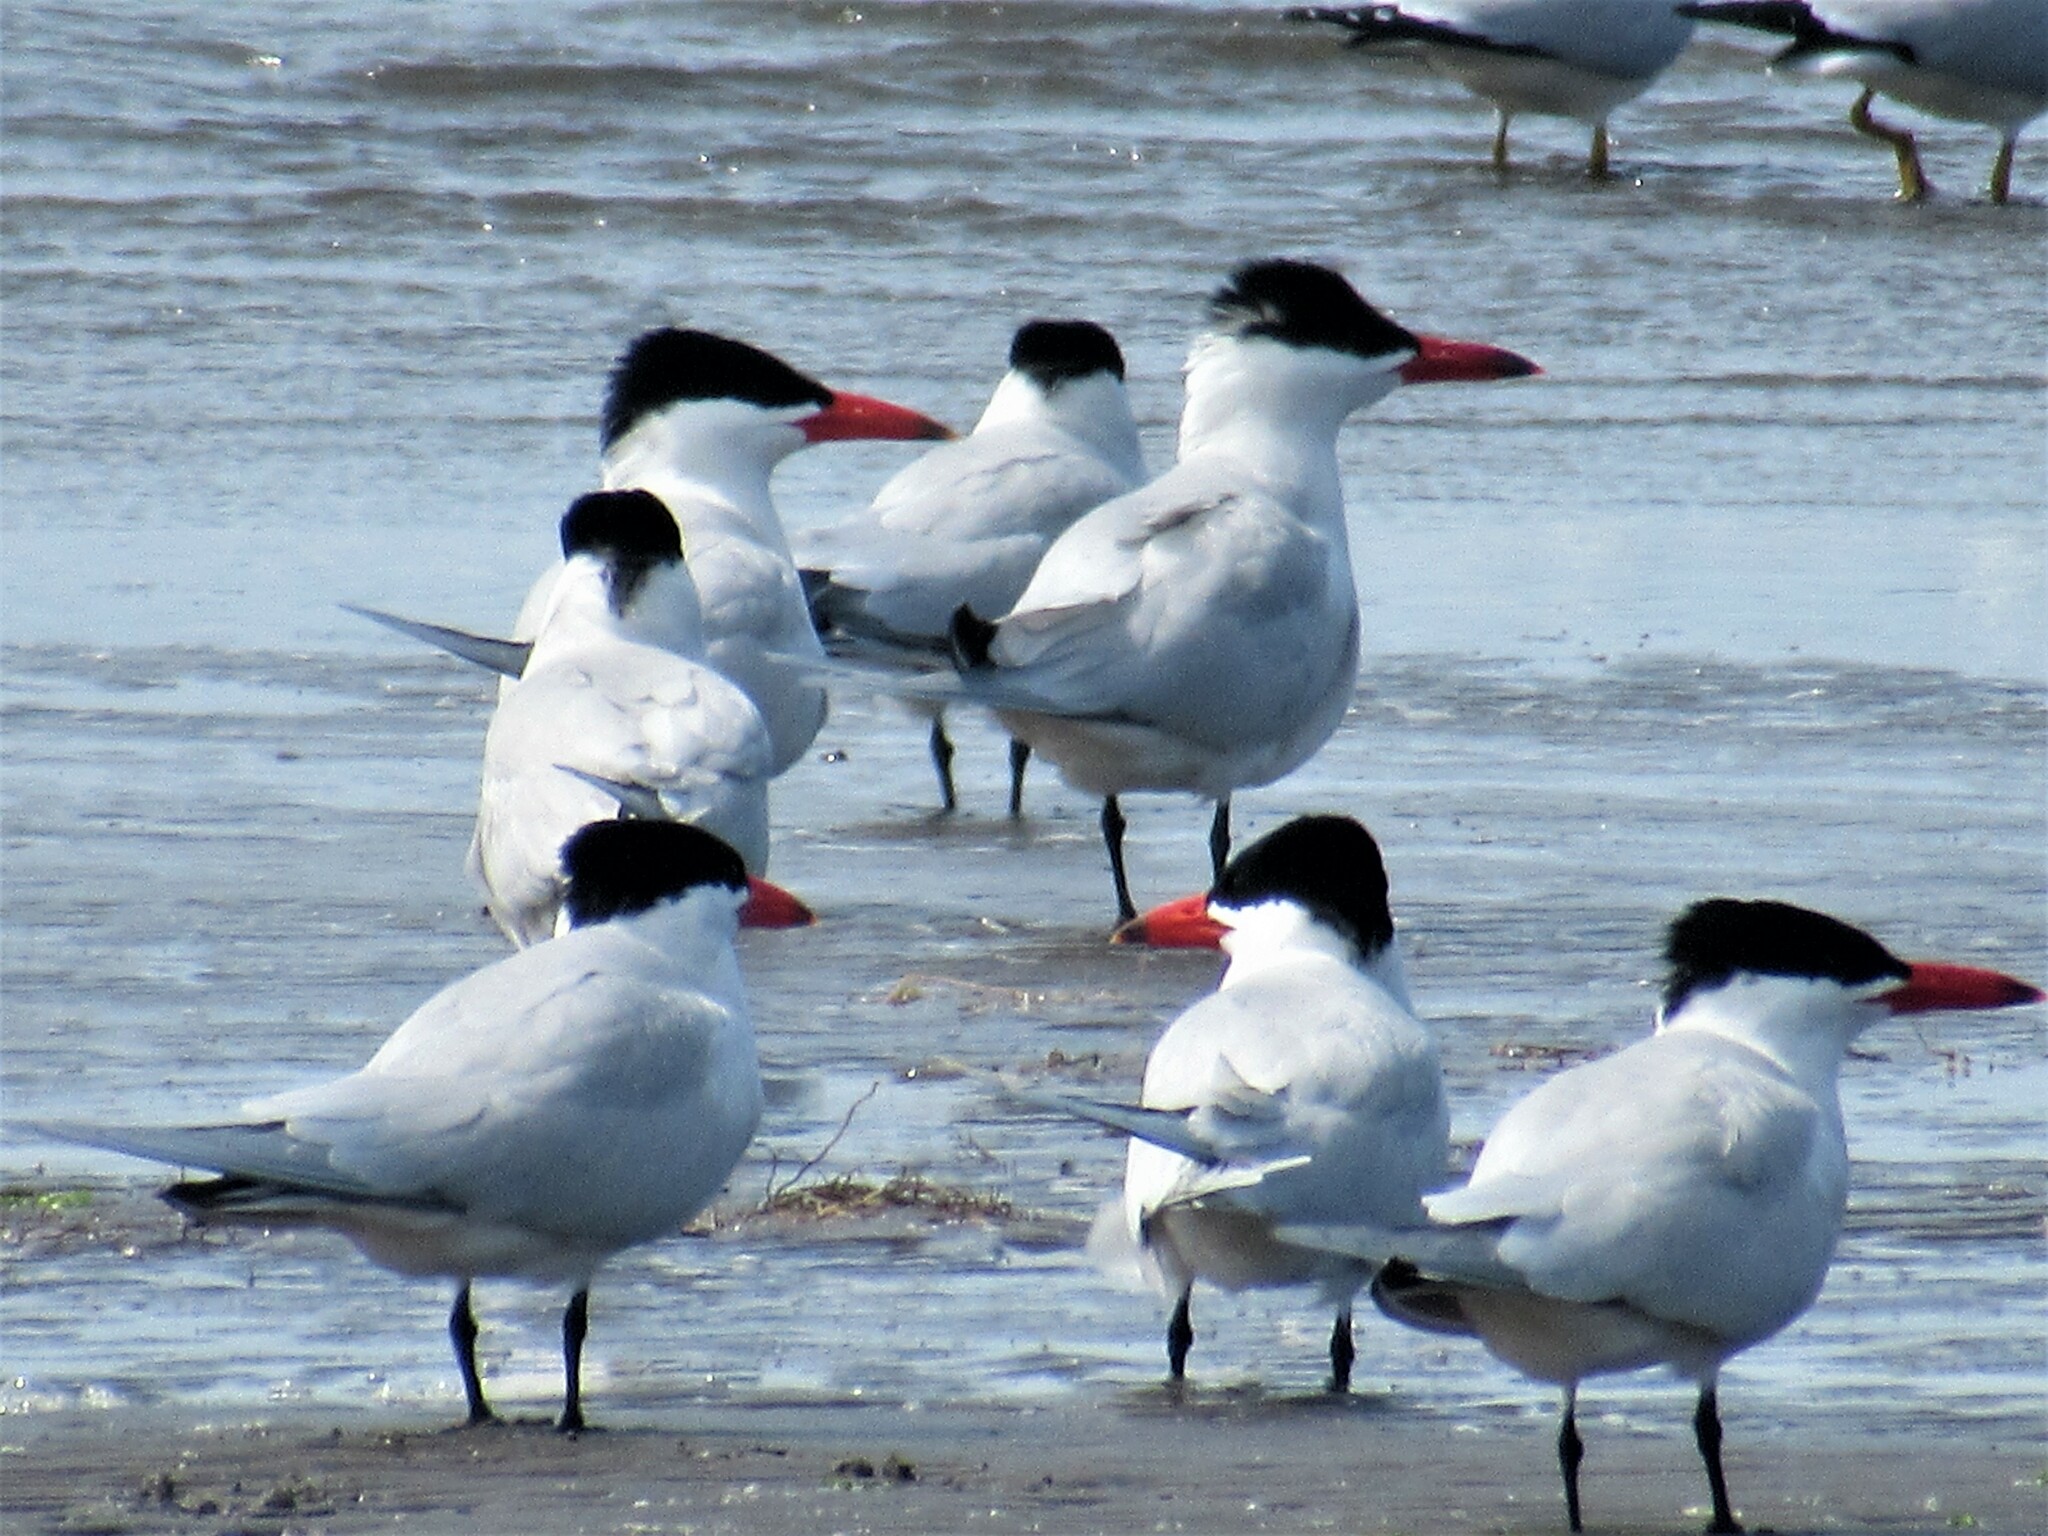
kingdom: Animalia
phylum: Chordata
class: Aves
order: Charadriiformes
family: Laridae
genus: Hydroprogne
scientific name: Hydroprogne caspia
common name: Caspian tern
